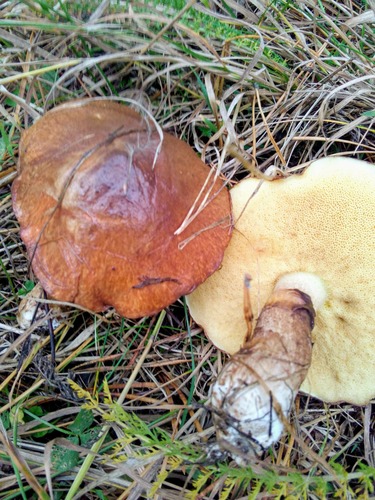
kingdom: Fungi
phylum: Basidiomycota
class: Agaricomycetes
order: Boletales
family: Suillaceae
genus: Suillus
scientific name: Suillus luteus
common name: Slippery jack
